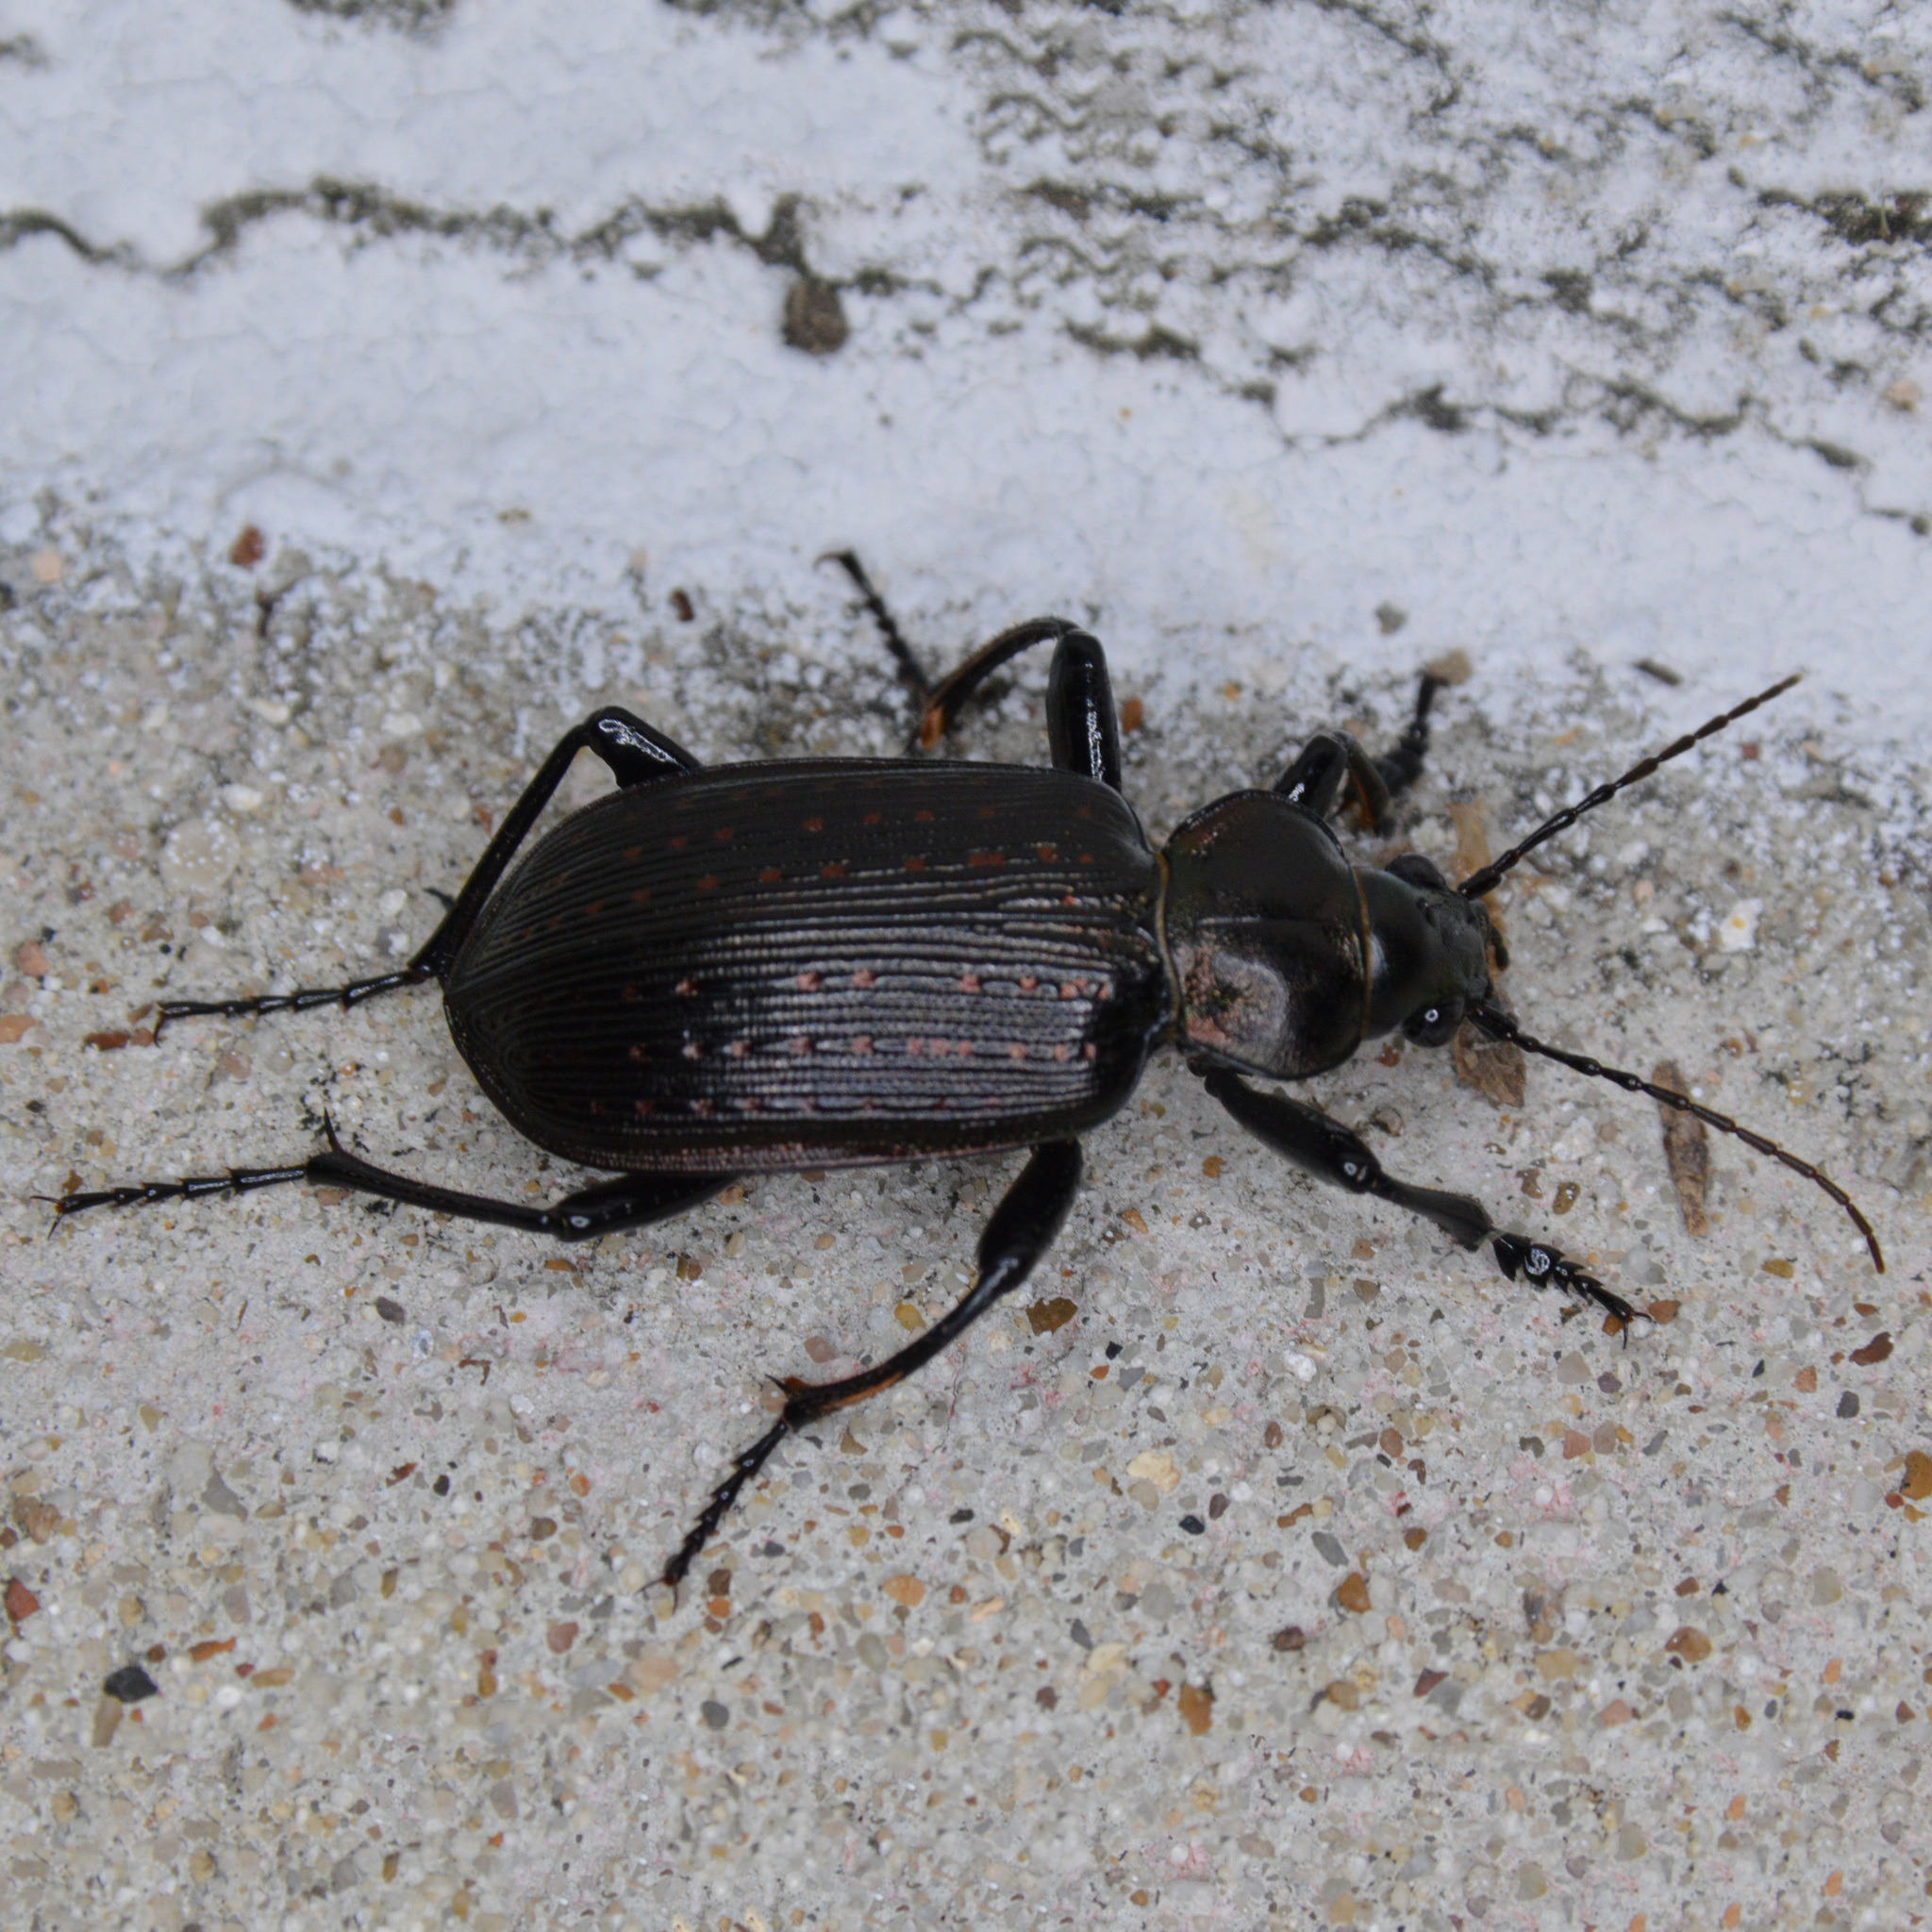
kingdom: Animalia
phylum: Arthropoda
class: Insecta
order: Coleoptera
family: Carabidae
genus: Calosoma
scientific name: Calosoma sayi
